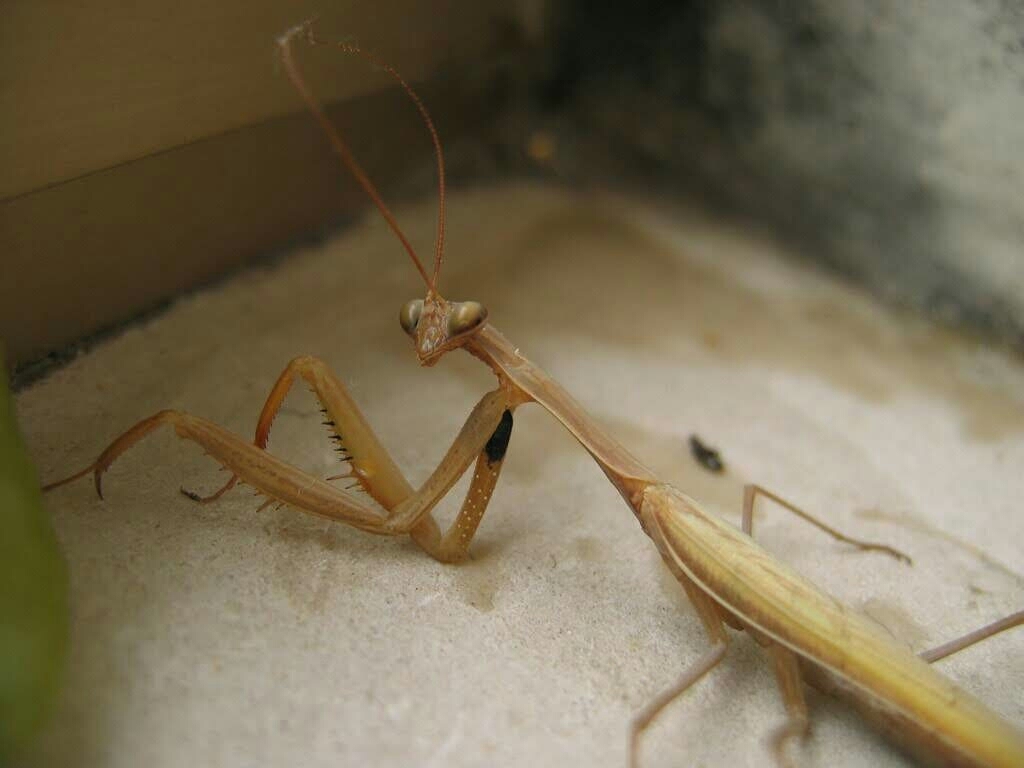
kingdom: Animalia
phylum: Arthropoda
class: Insecta
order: Mantodea
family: Mantidae
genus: Mantis
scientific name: Mantis religiosa
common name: Praying mantis
